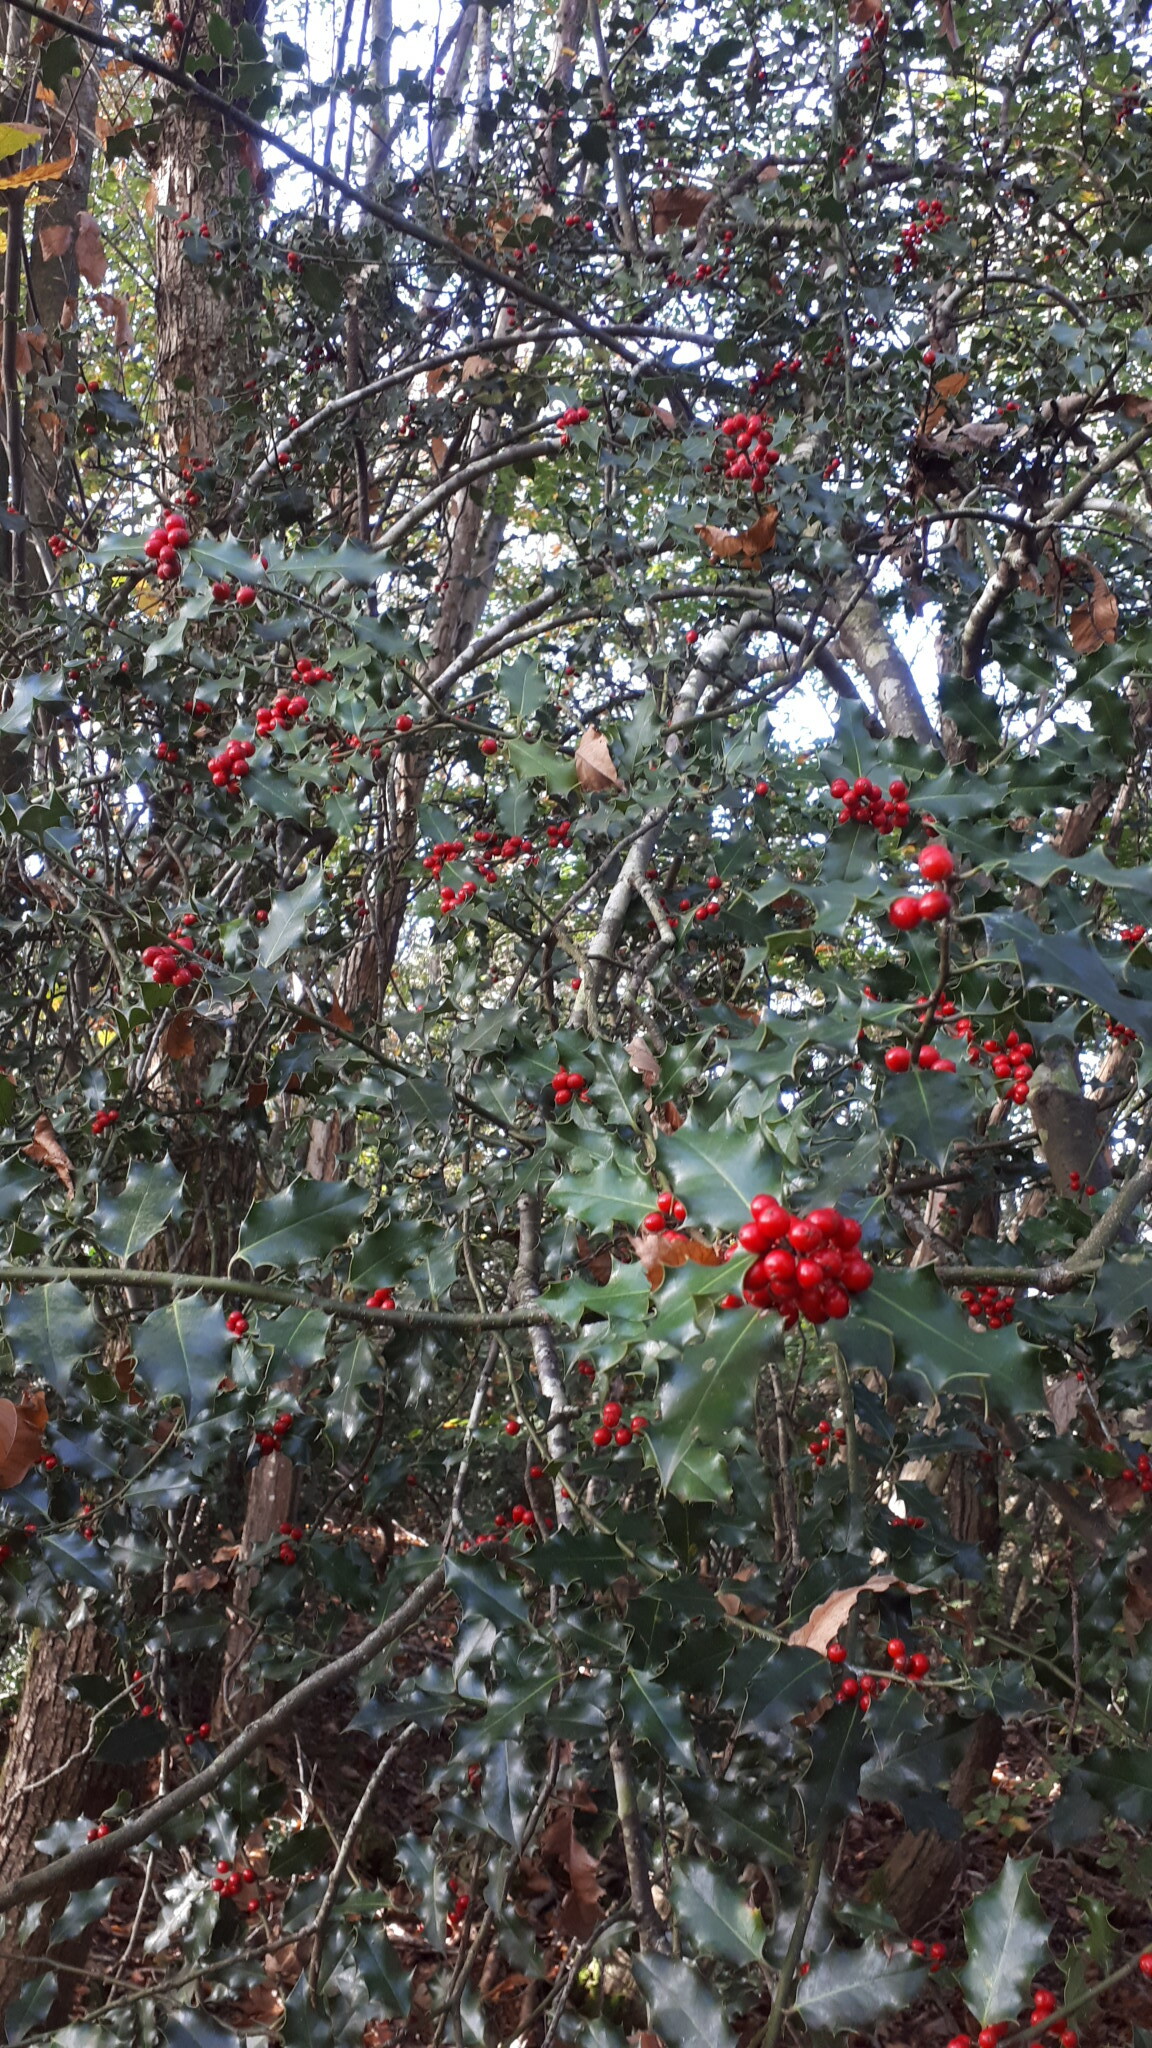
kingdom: Plantae
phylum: Tracheophyta
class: Magnoliopsida
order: Aquifoliales
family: Aquifoliaceae
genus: Ilex
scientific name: Ilex aquifolium
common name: English holly
